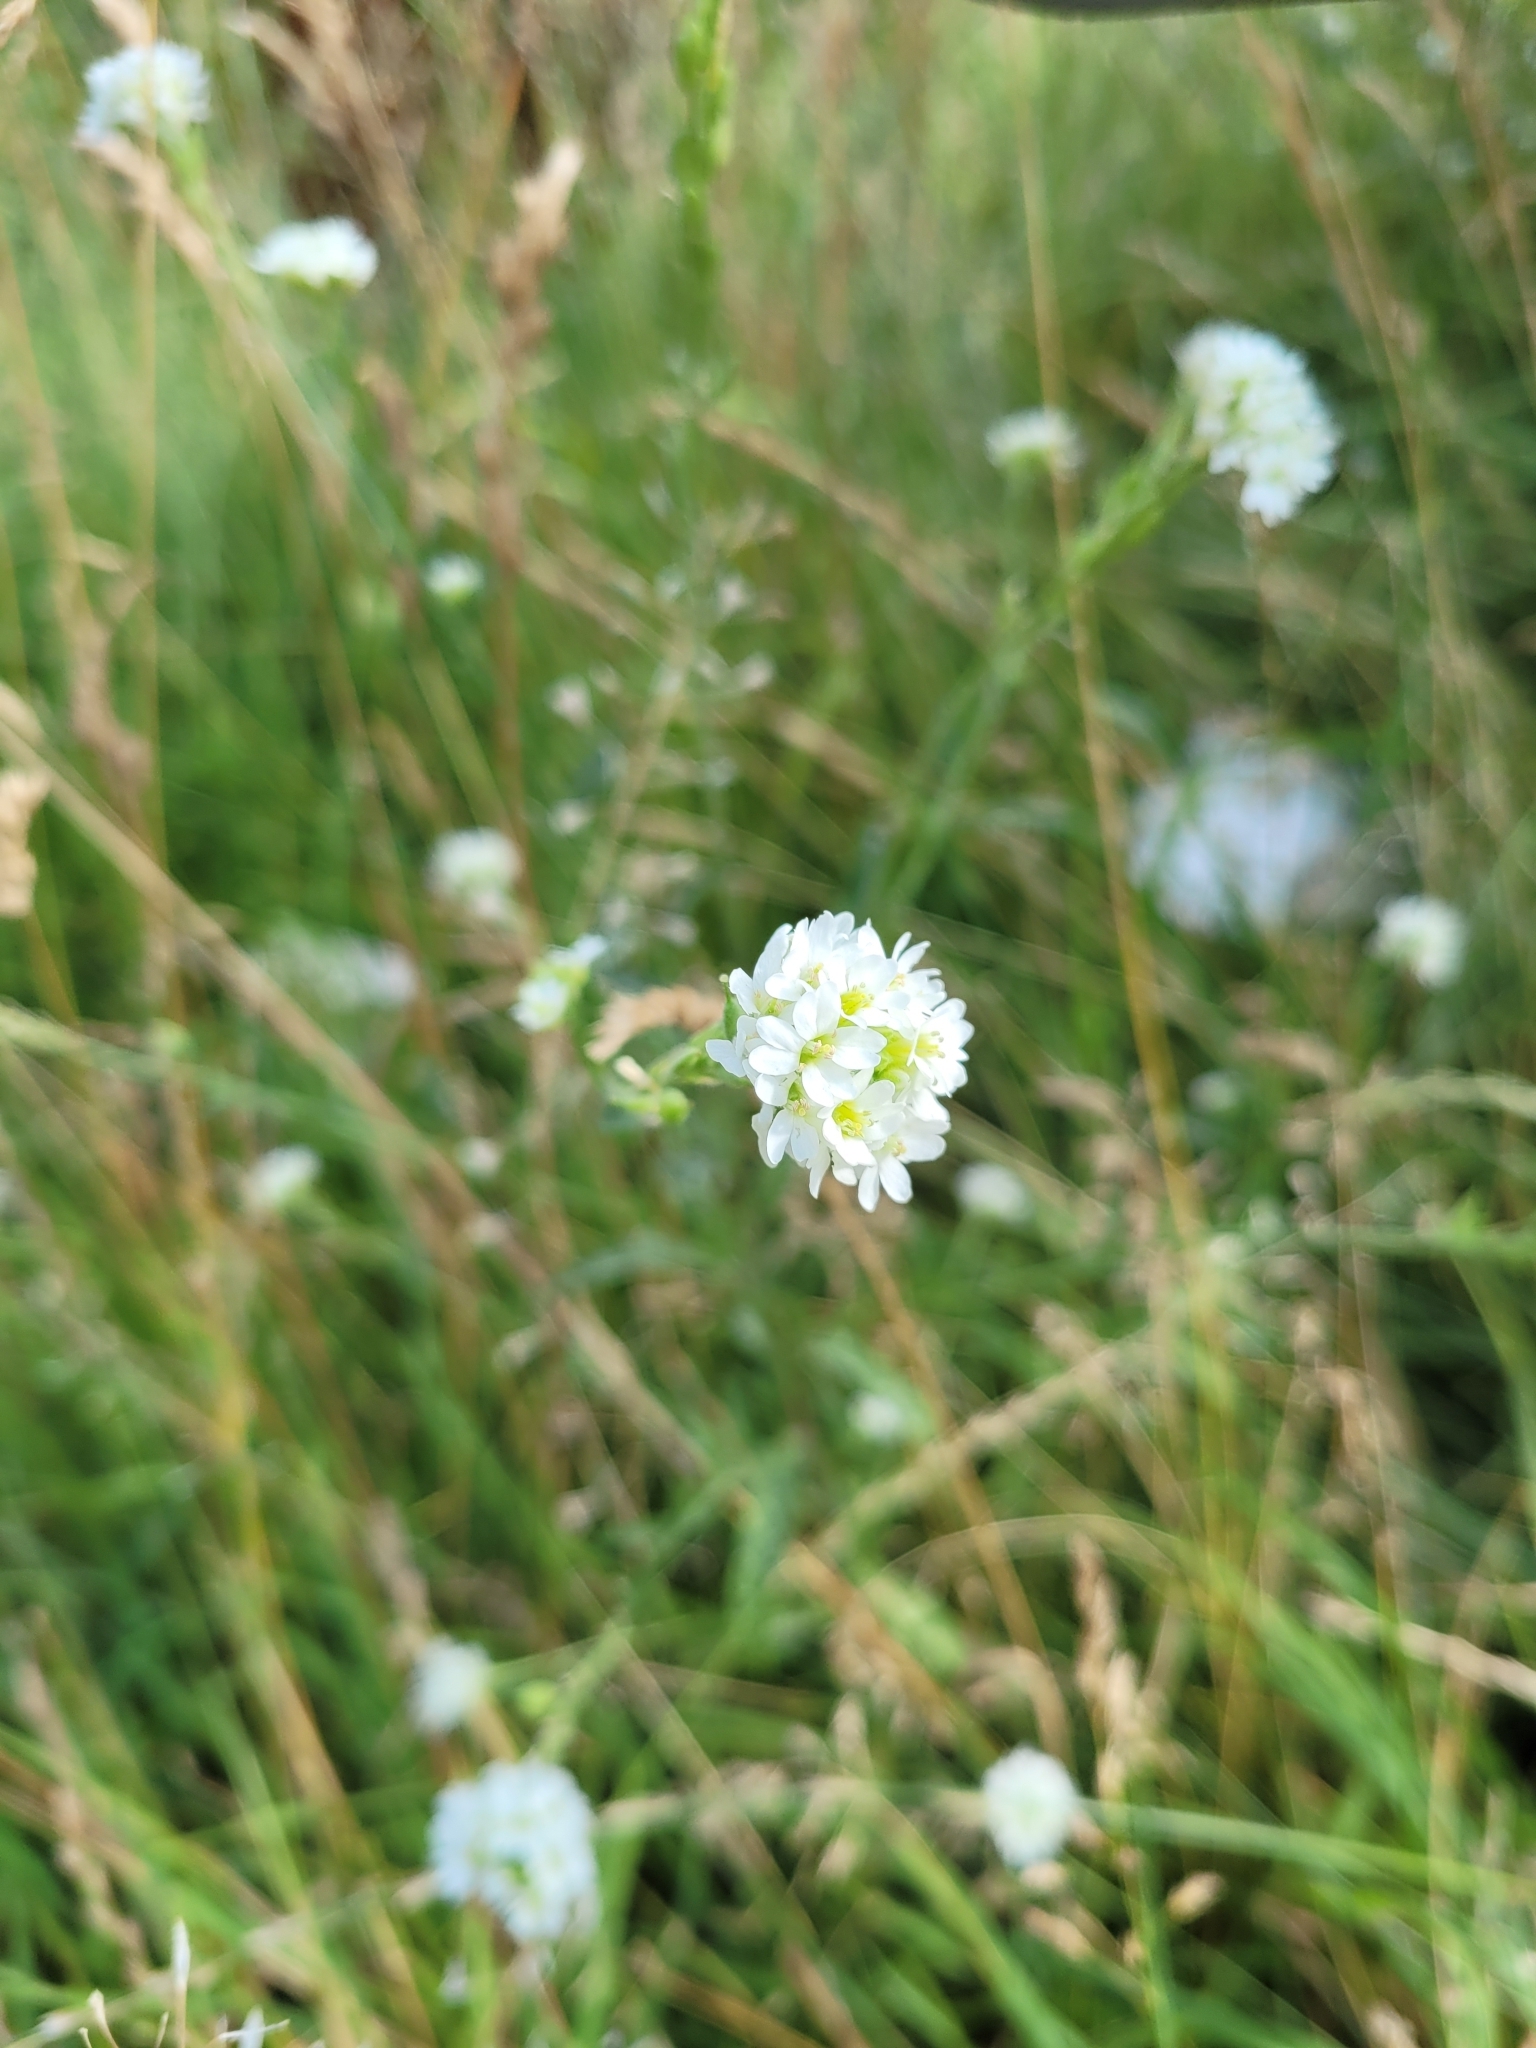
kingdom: Plantae
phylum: Tracheophyta
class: Magnoliopsida
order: Brassicales
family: Brassicaceae
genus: Berteroa
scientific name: Berteroa incana
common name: Hoary alison
